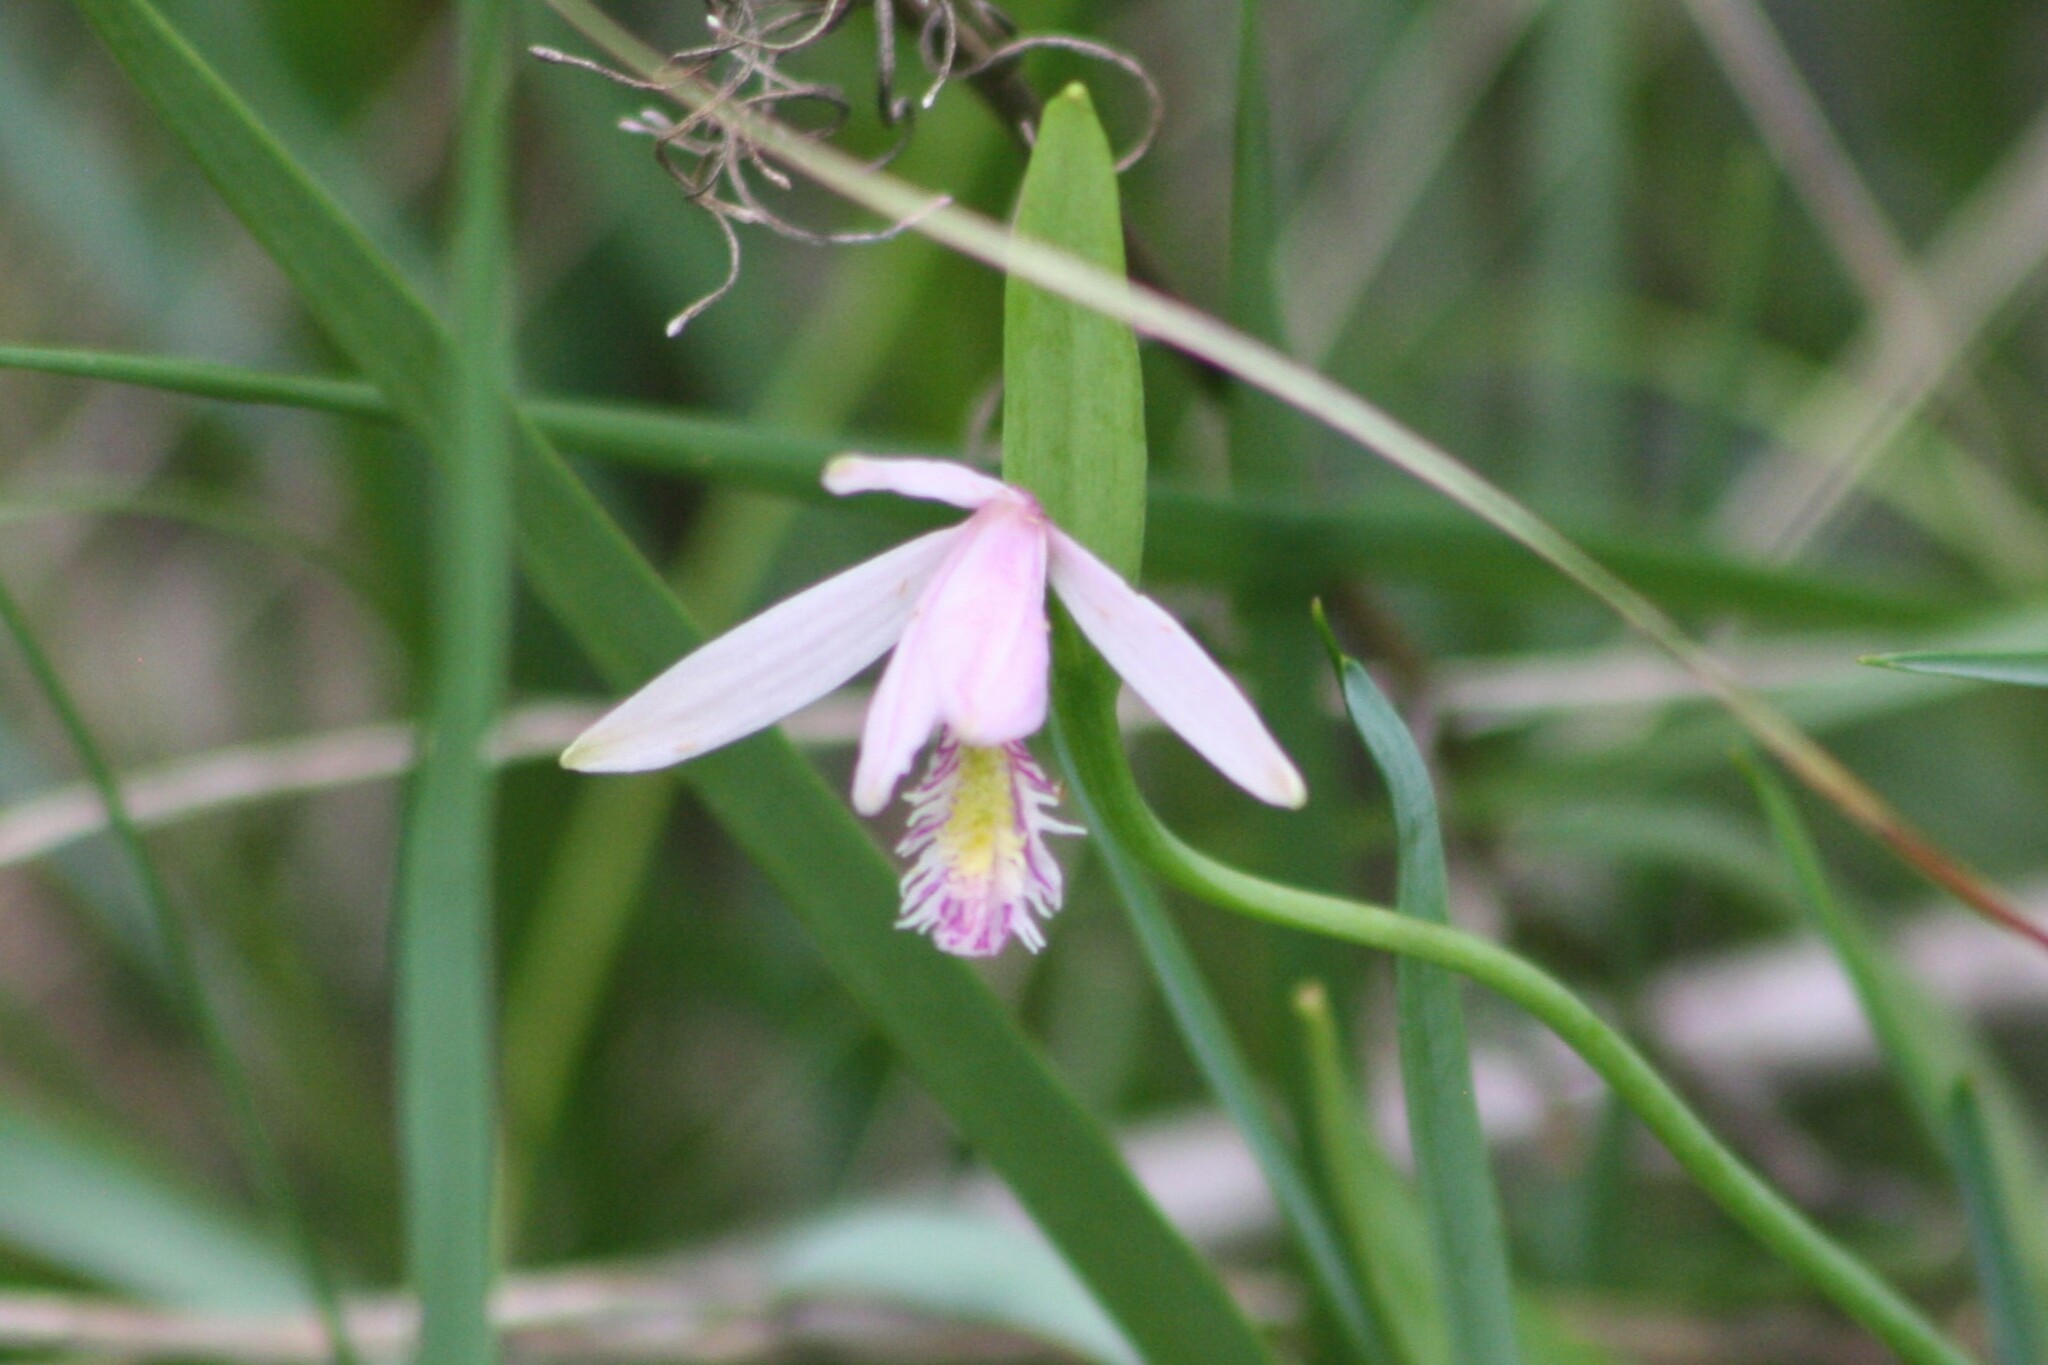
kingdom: Plantae
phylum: Tracheophyta
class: Liliopsida
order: Asparagales
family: Orchidaceae
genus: Pogonia
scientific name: Pogonia ophioglossoides
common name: Rose pogonia
